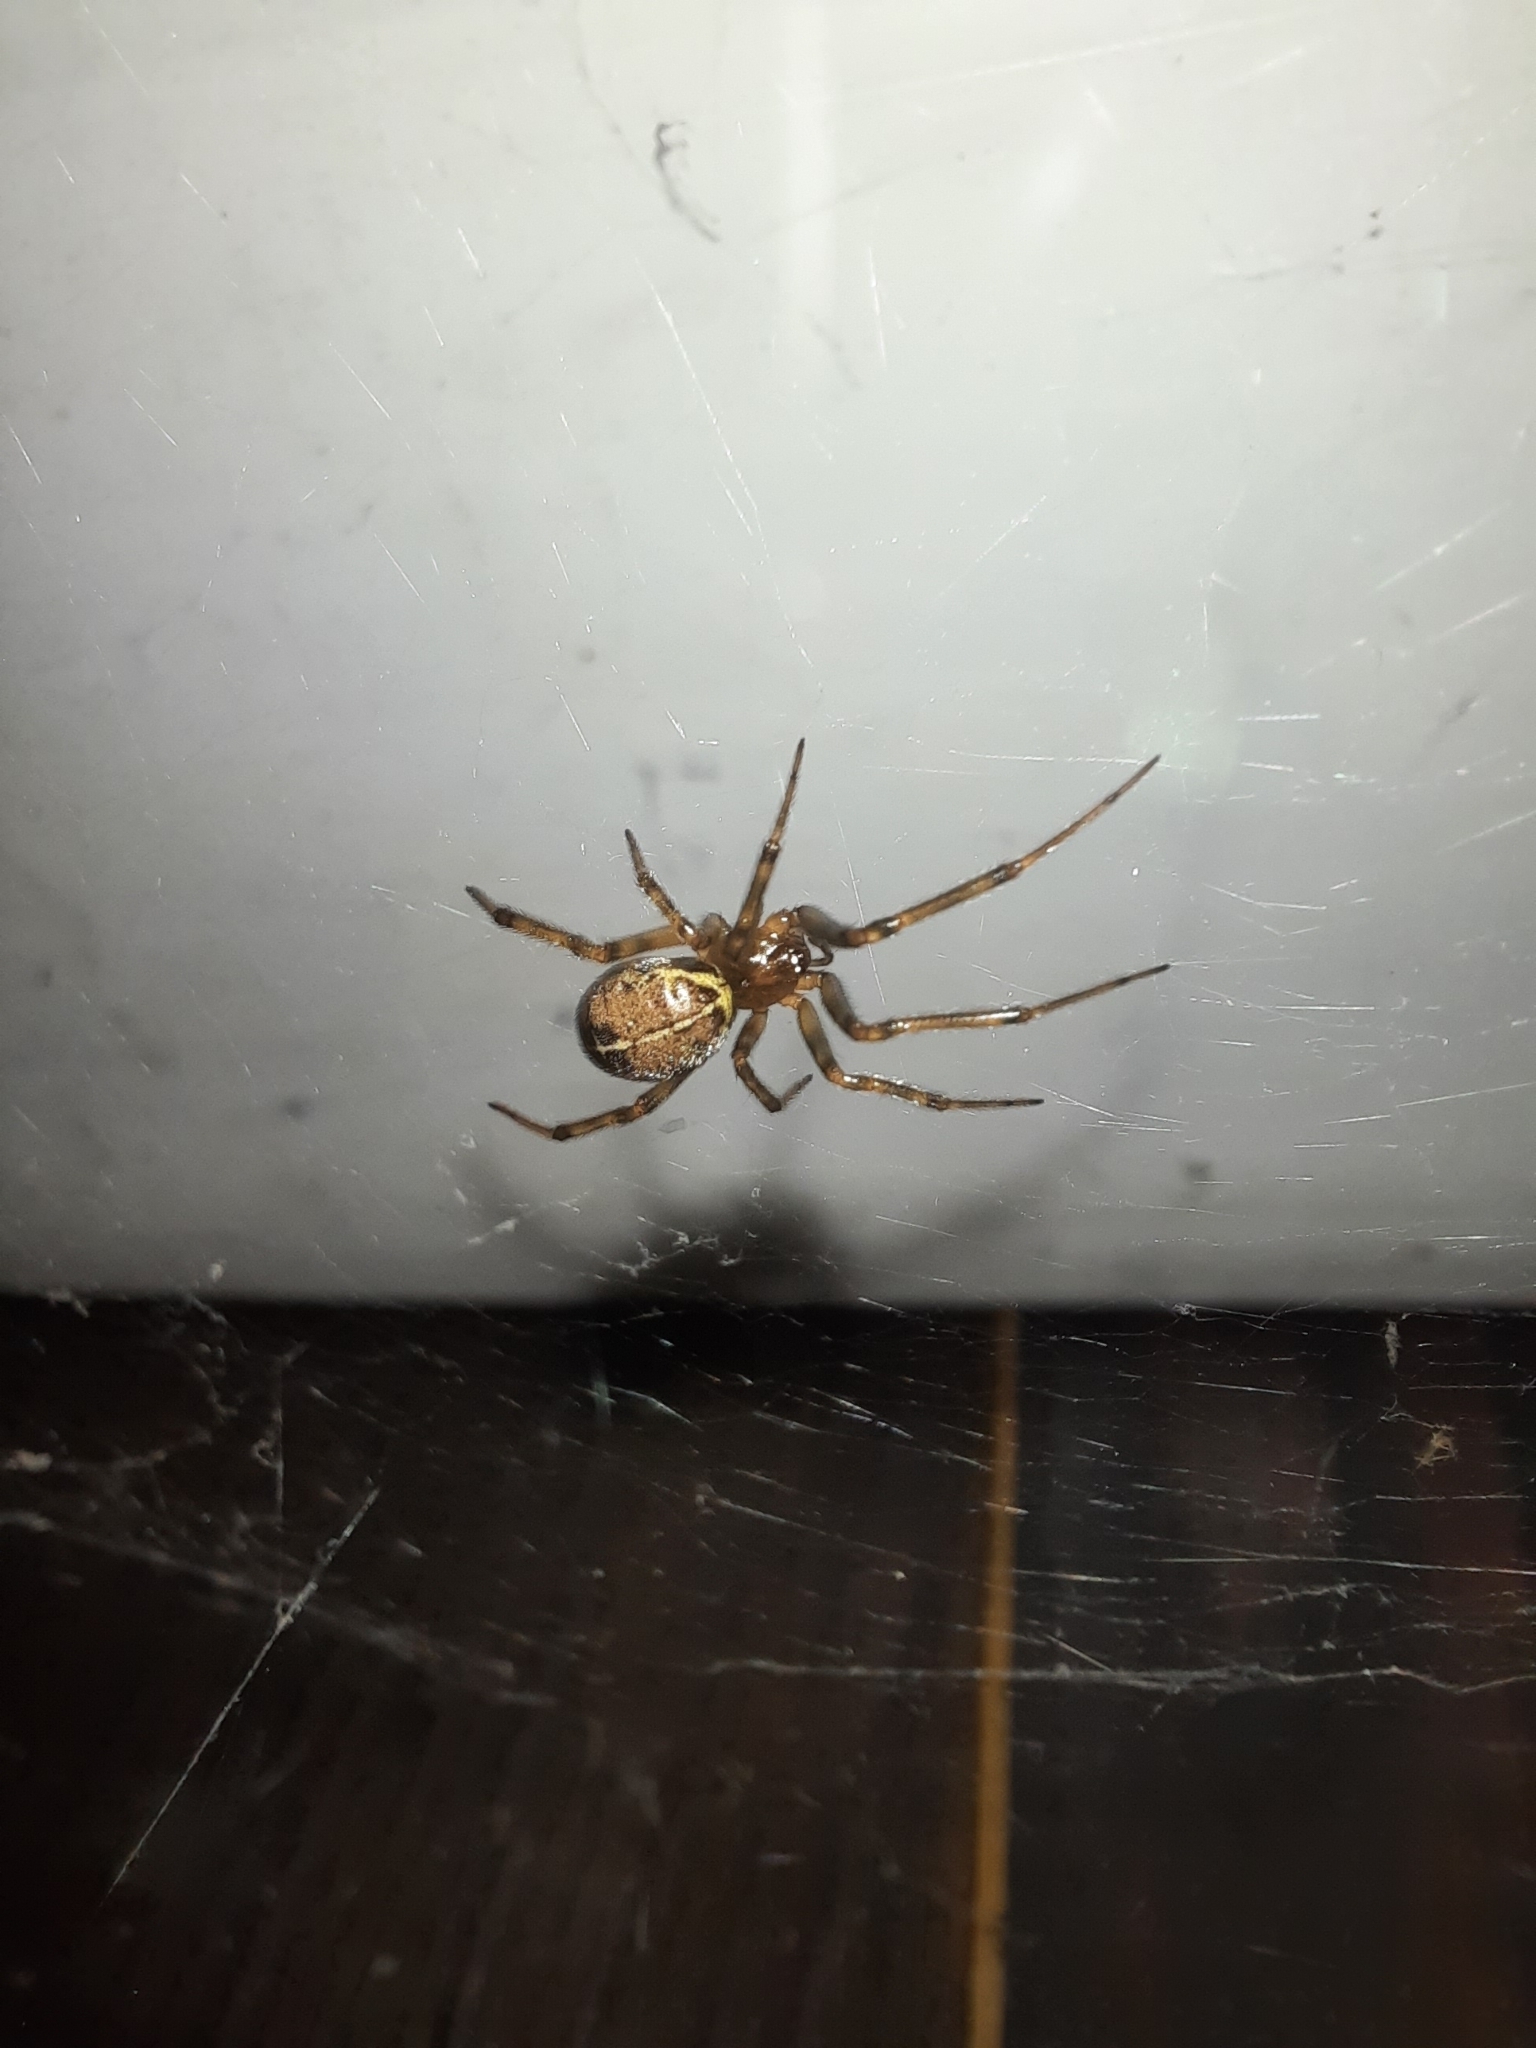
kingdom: Animalia
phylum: Arthropoda
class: Arachnida
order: Araneae
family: Theridiidae
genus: Steatoda
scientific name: Steatoda castanea
